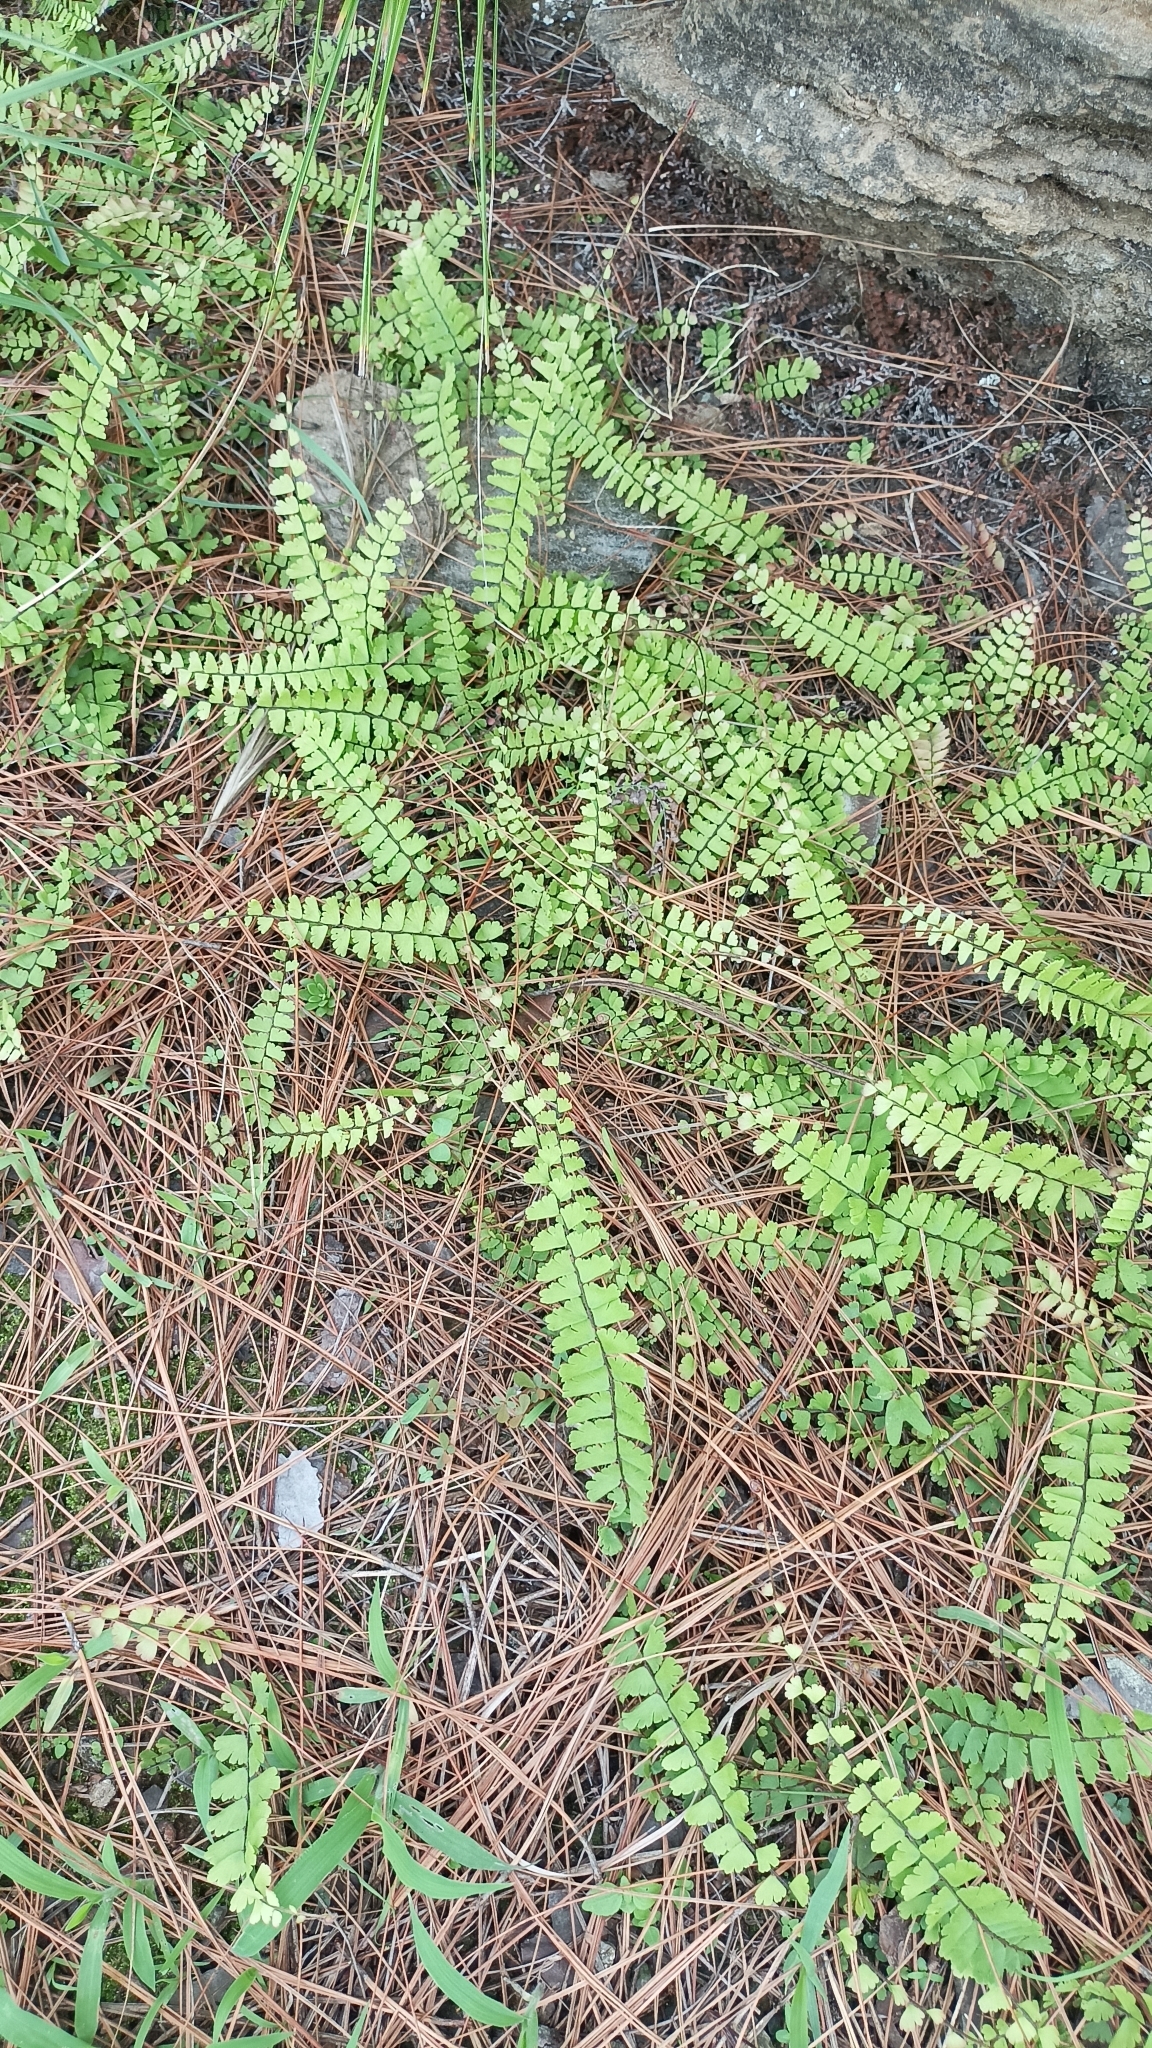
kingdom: Plantae
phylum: Tracheophyta
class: Polypodiopsida
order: Polypodiales
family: Pteridaceae
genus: Adiantum
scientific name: Adiantum edgeworthii
